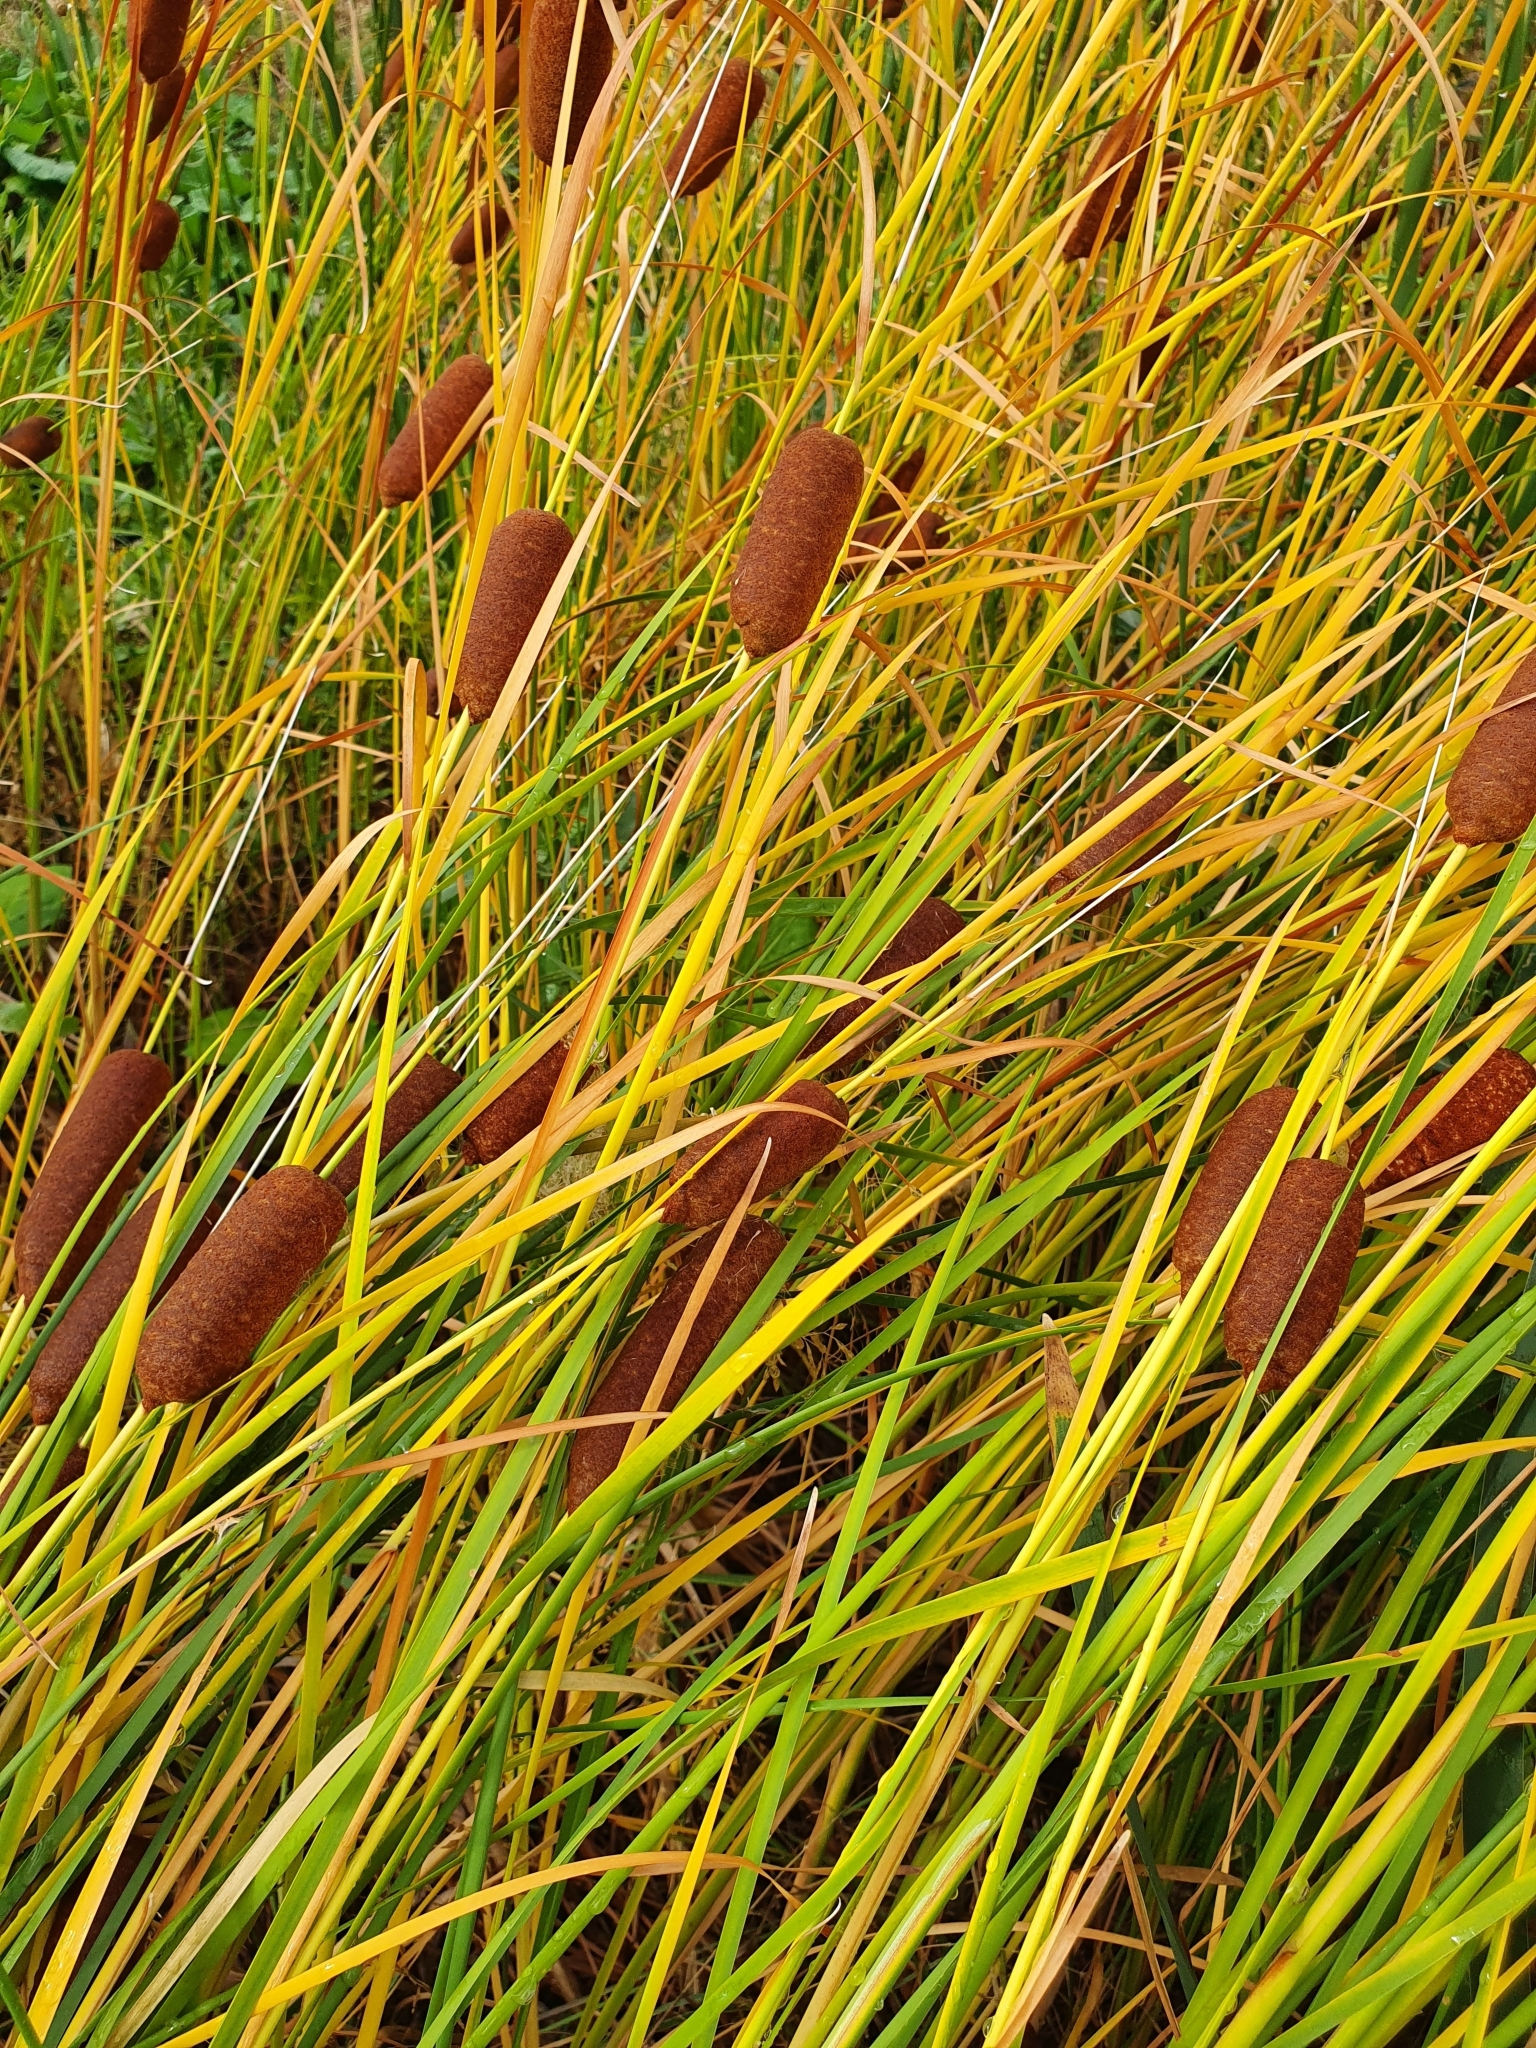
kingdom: Plantae
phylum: Tracheophyta
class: Liliopsida
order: Poales
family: Typhaceae
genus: Typha
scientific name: Typha laxmannii
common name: Laxman’s bulrush
